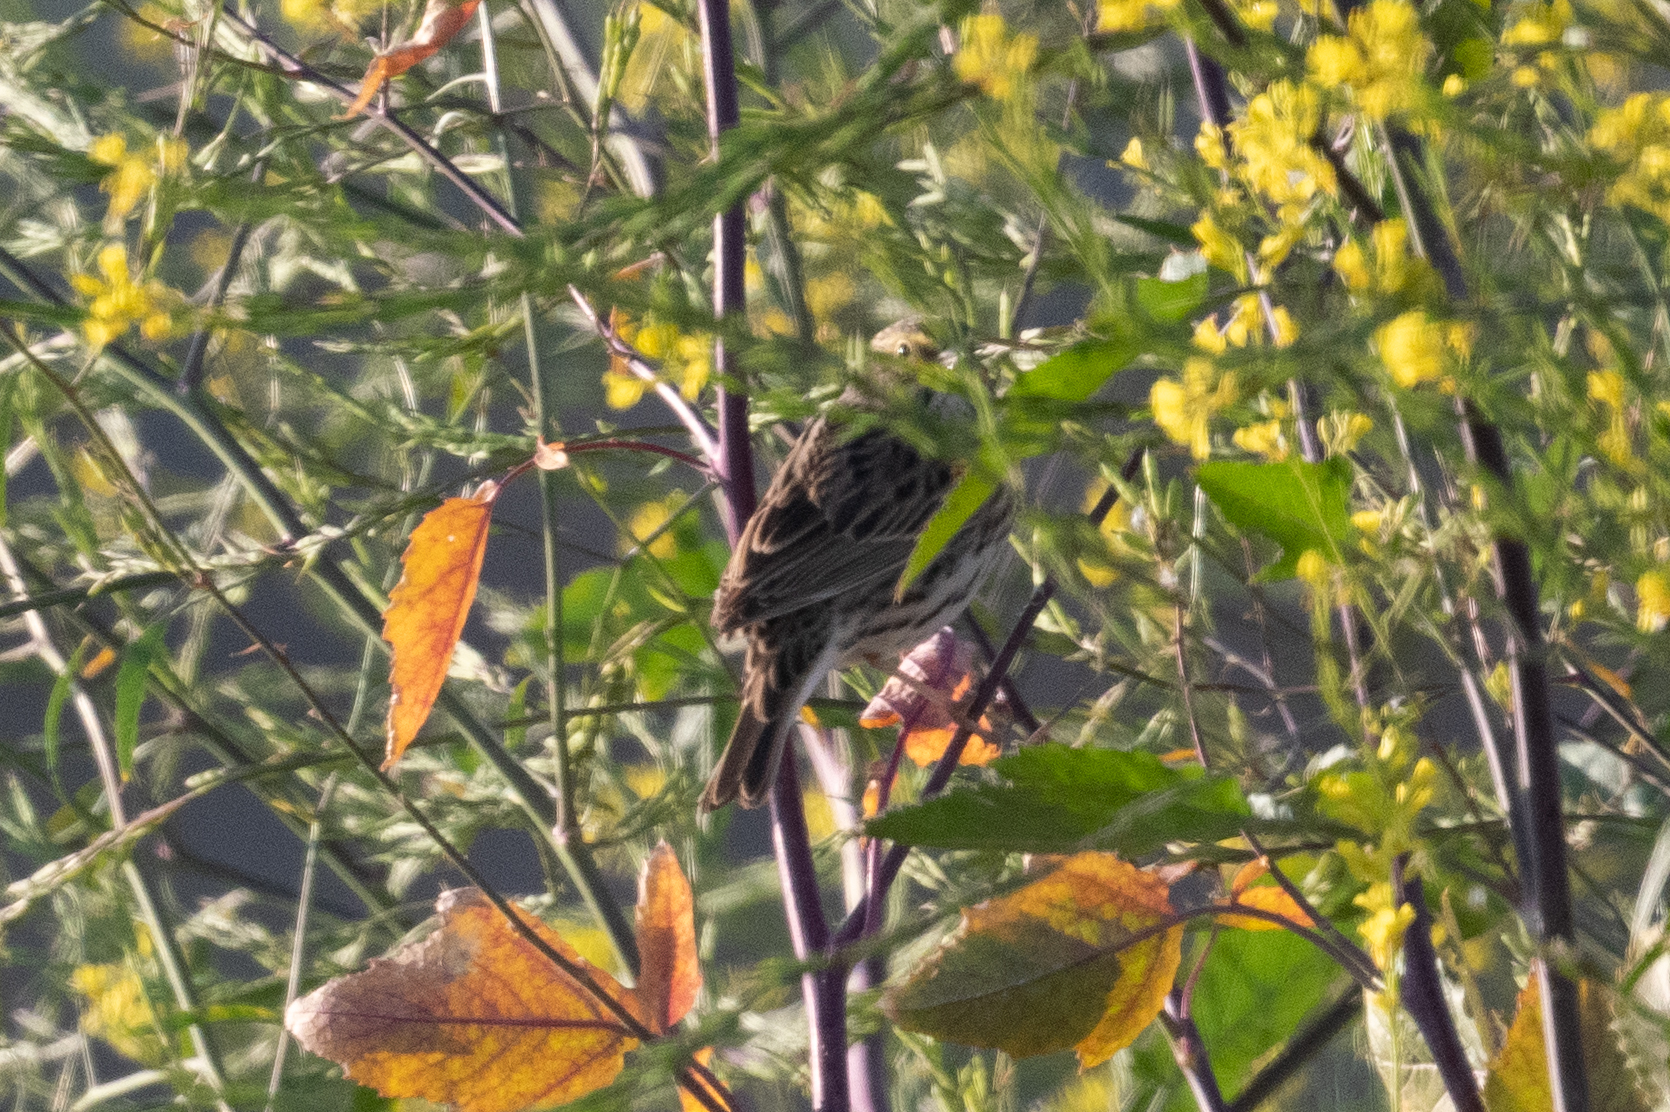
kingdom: Animalia
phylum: Chordata
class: Aves
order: Passeriformes
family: Passerellidae
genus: Passerculus
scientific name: Passerculus sandwichensis
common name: Savannah sparrow
